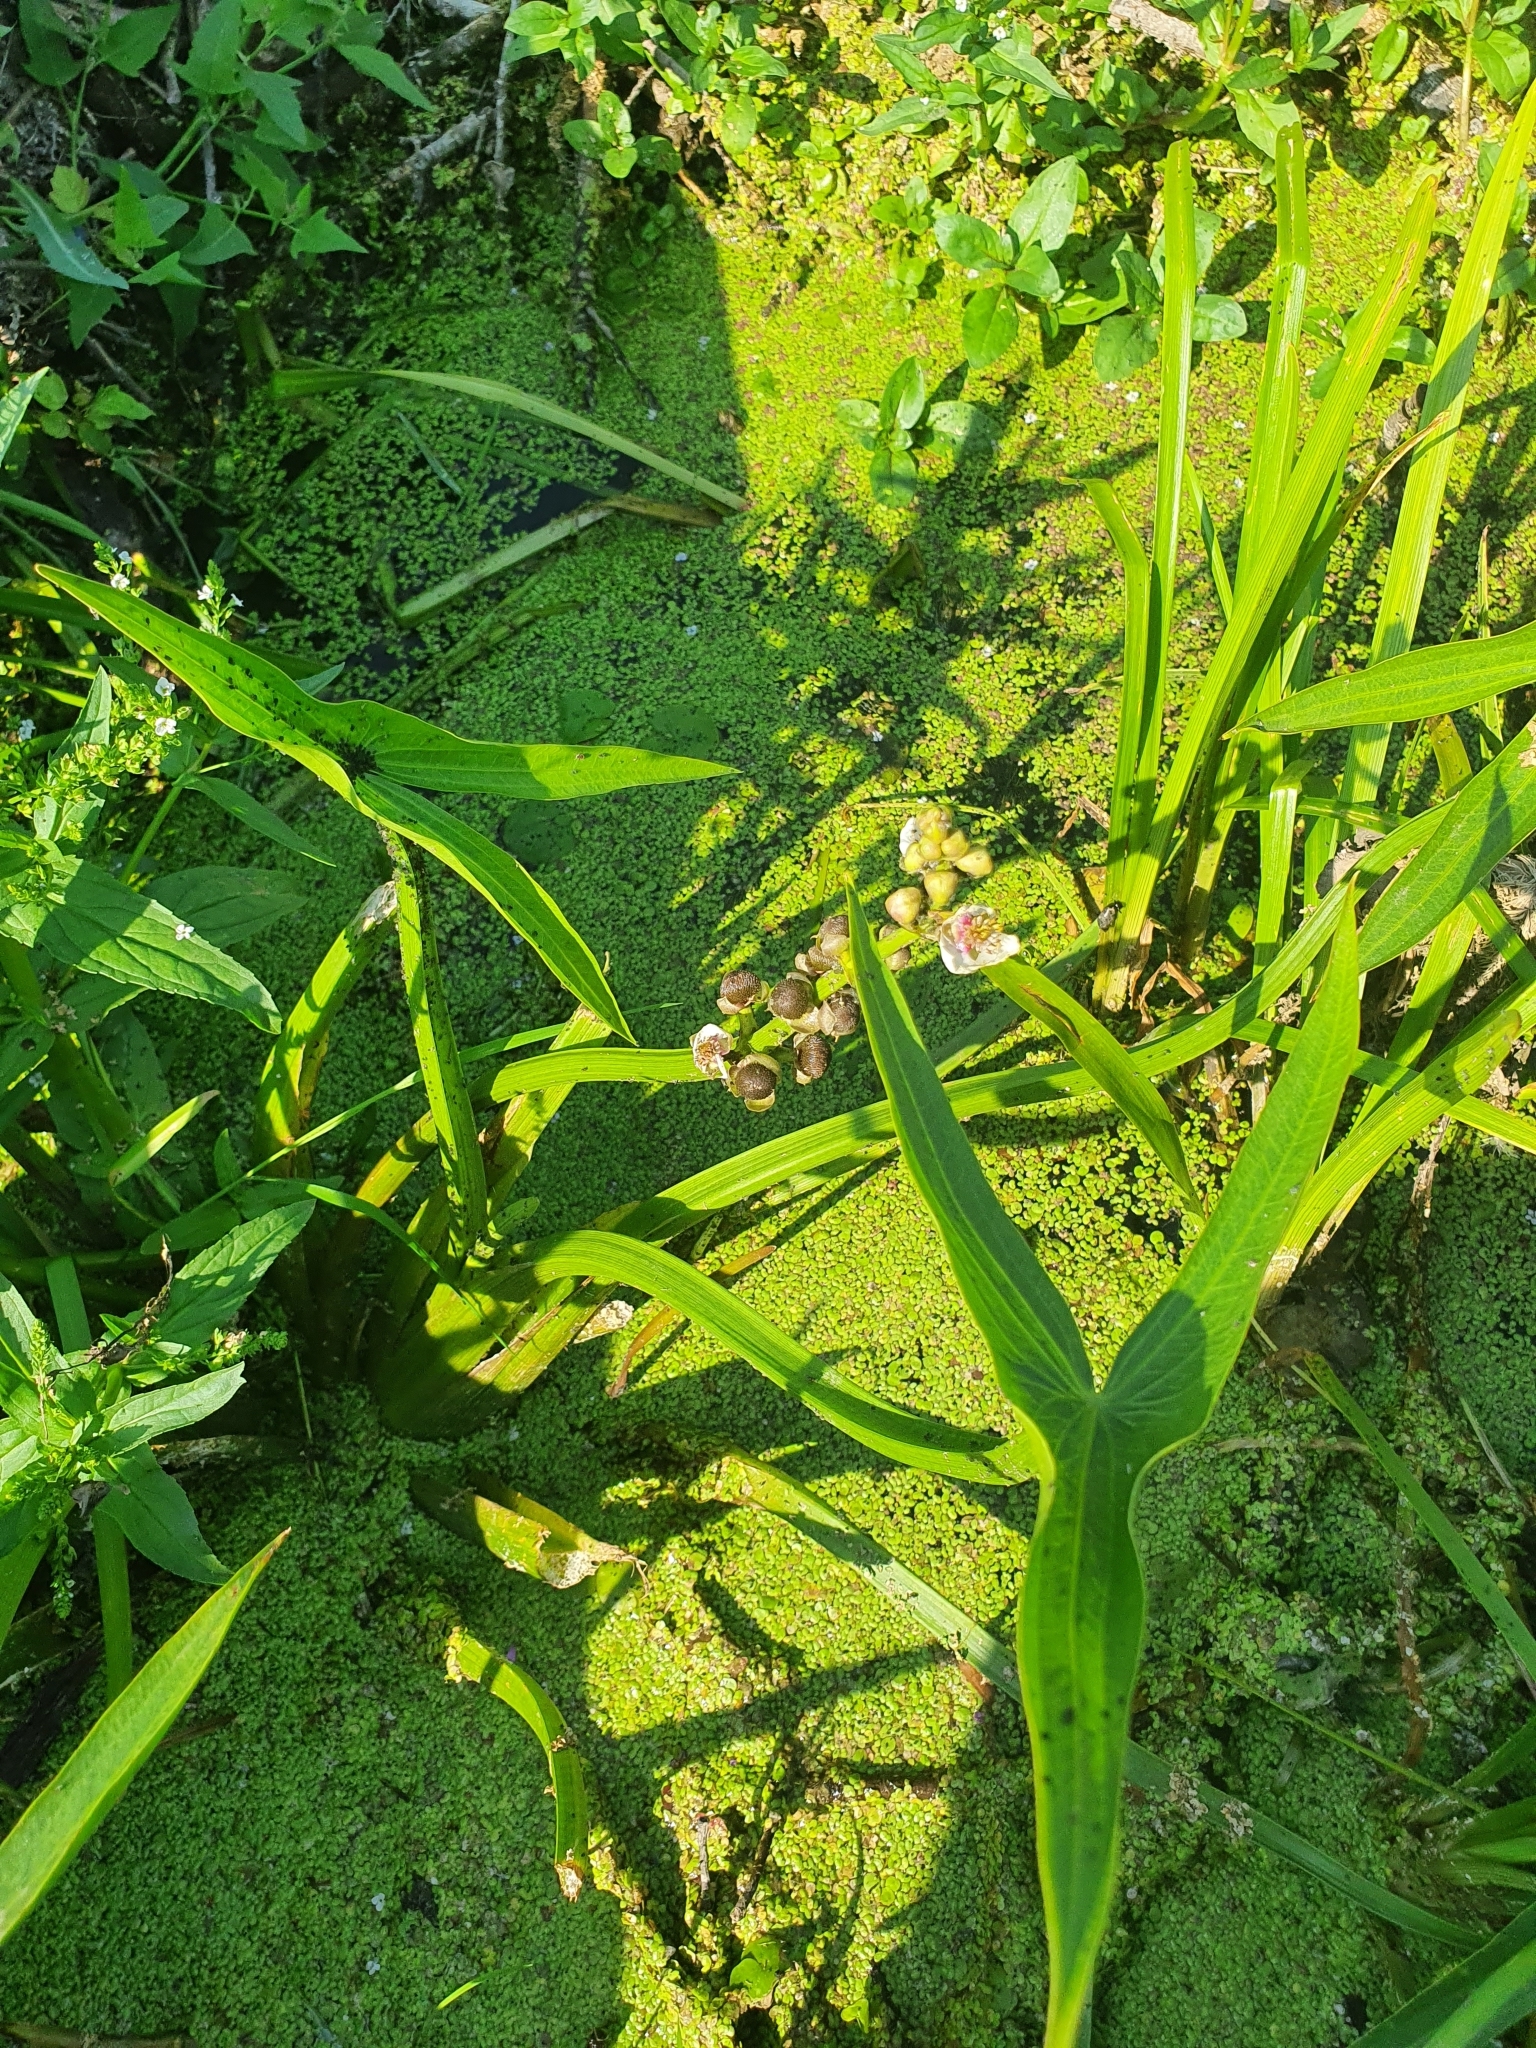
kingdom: Plantae
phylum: Tracheophyta
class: Liliopsida
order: Alismatales
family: Alismataceae
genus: Sagittaria
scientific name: Sagittaria sagittifolia
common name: Arrowhead
